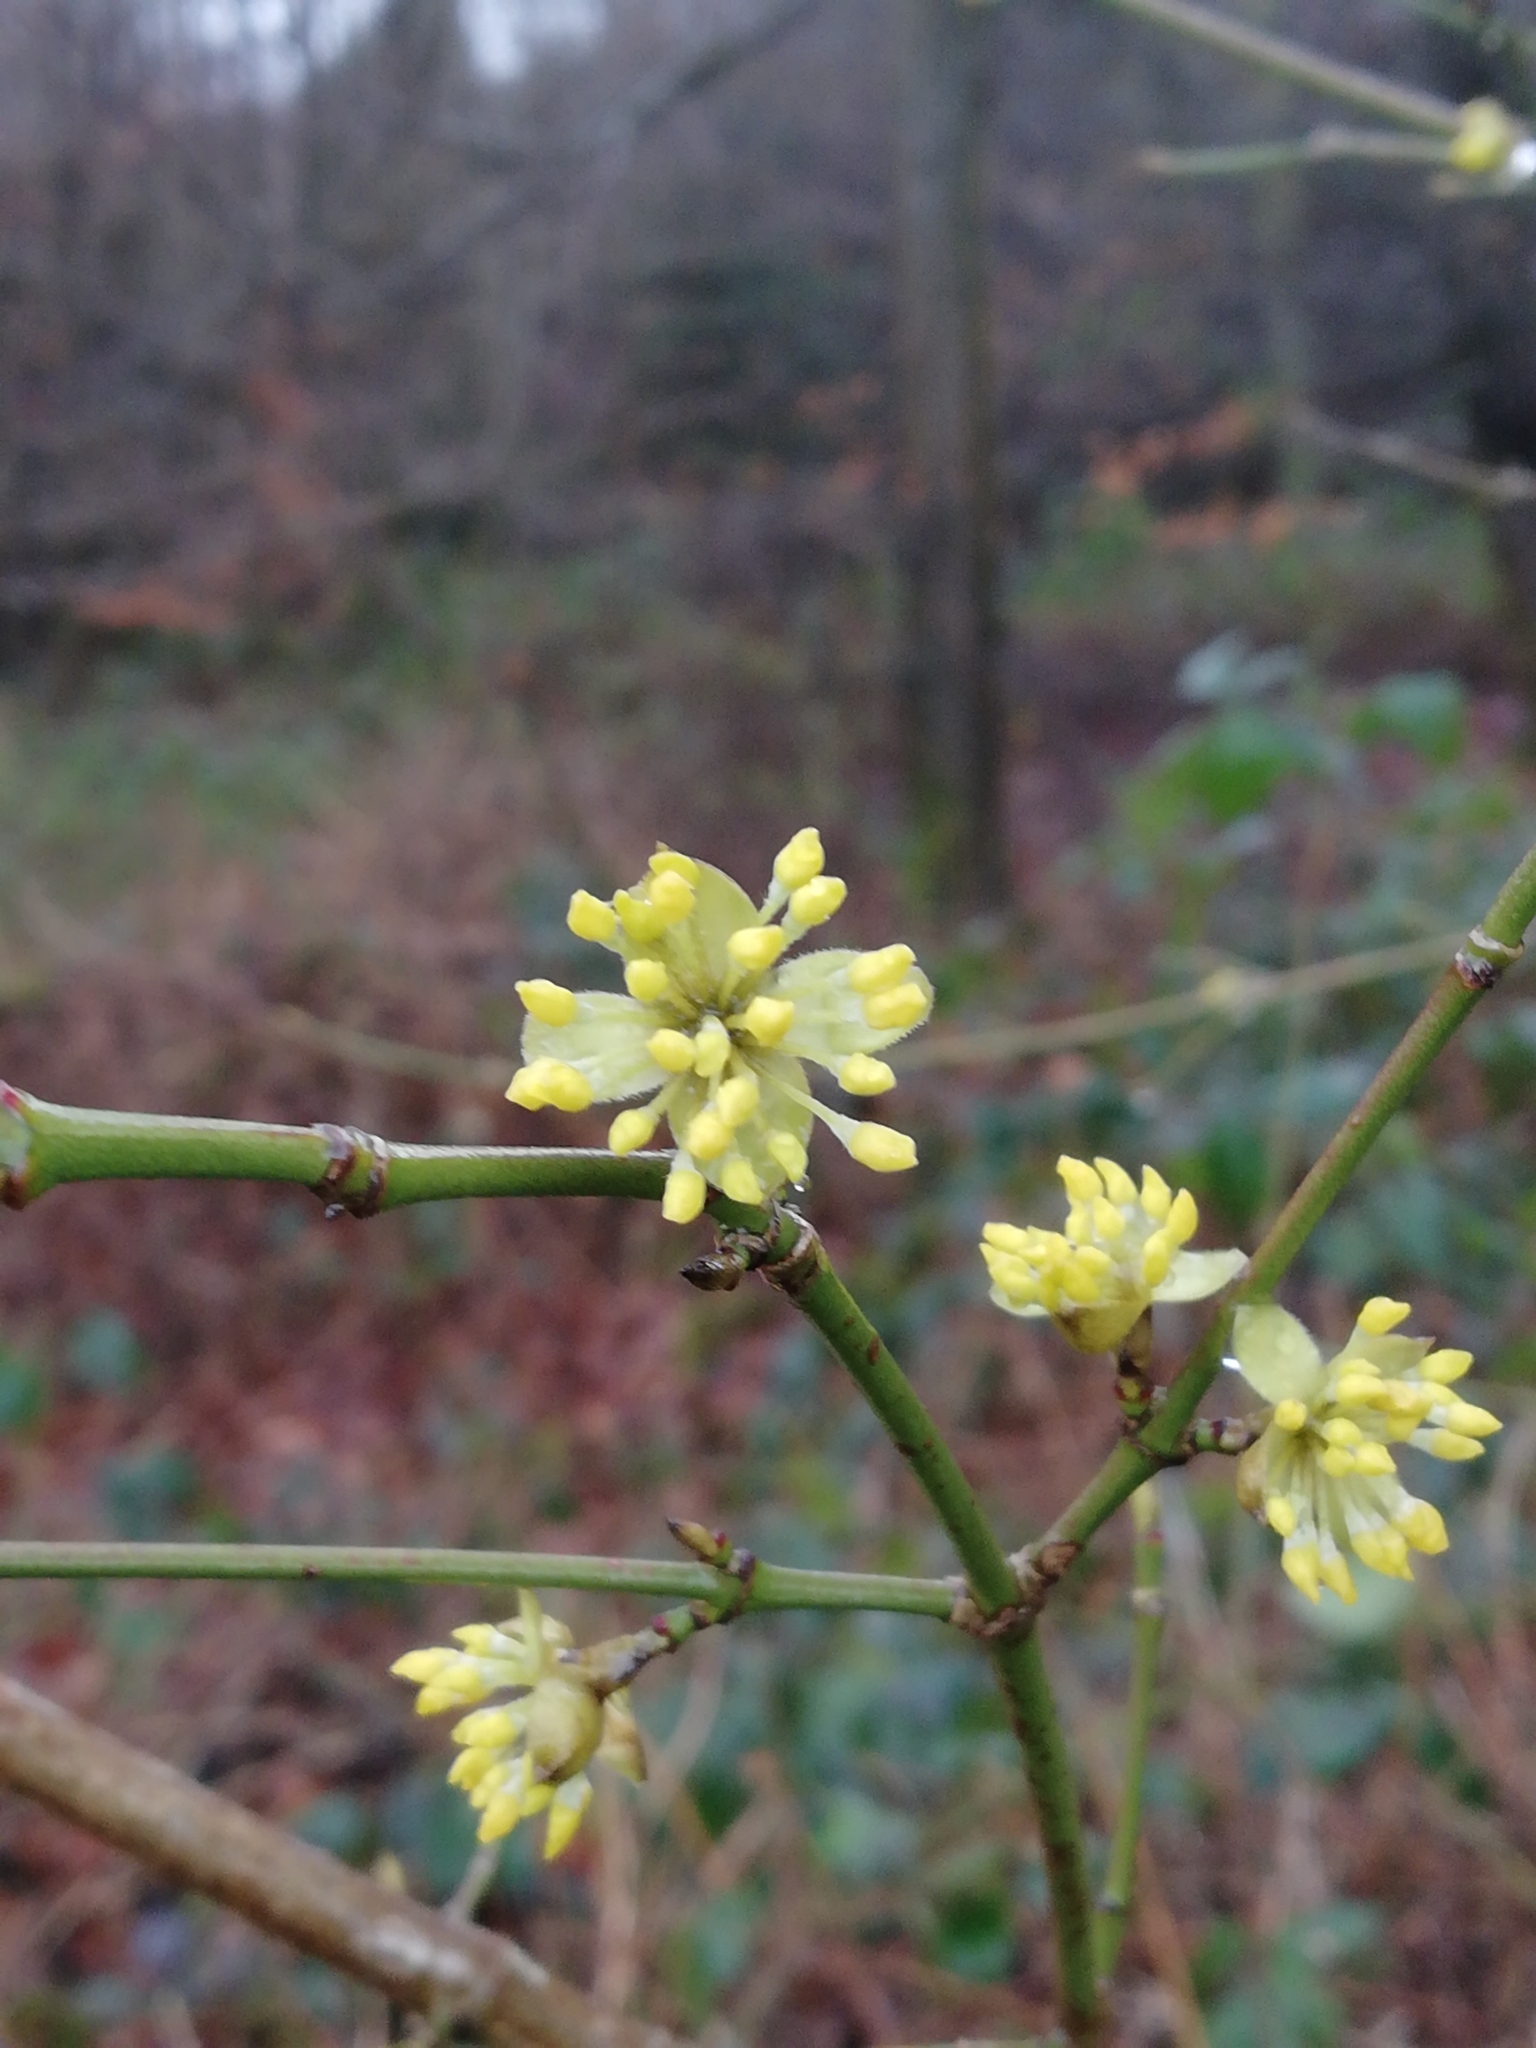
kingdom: Plantae
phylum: Tracheophyta
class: Magnoliopsida
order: Cornales
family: Cornaceae
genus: Cornus
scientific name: Cornus mas
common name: Cornelian-cherry
